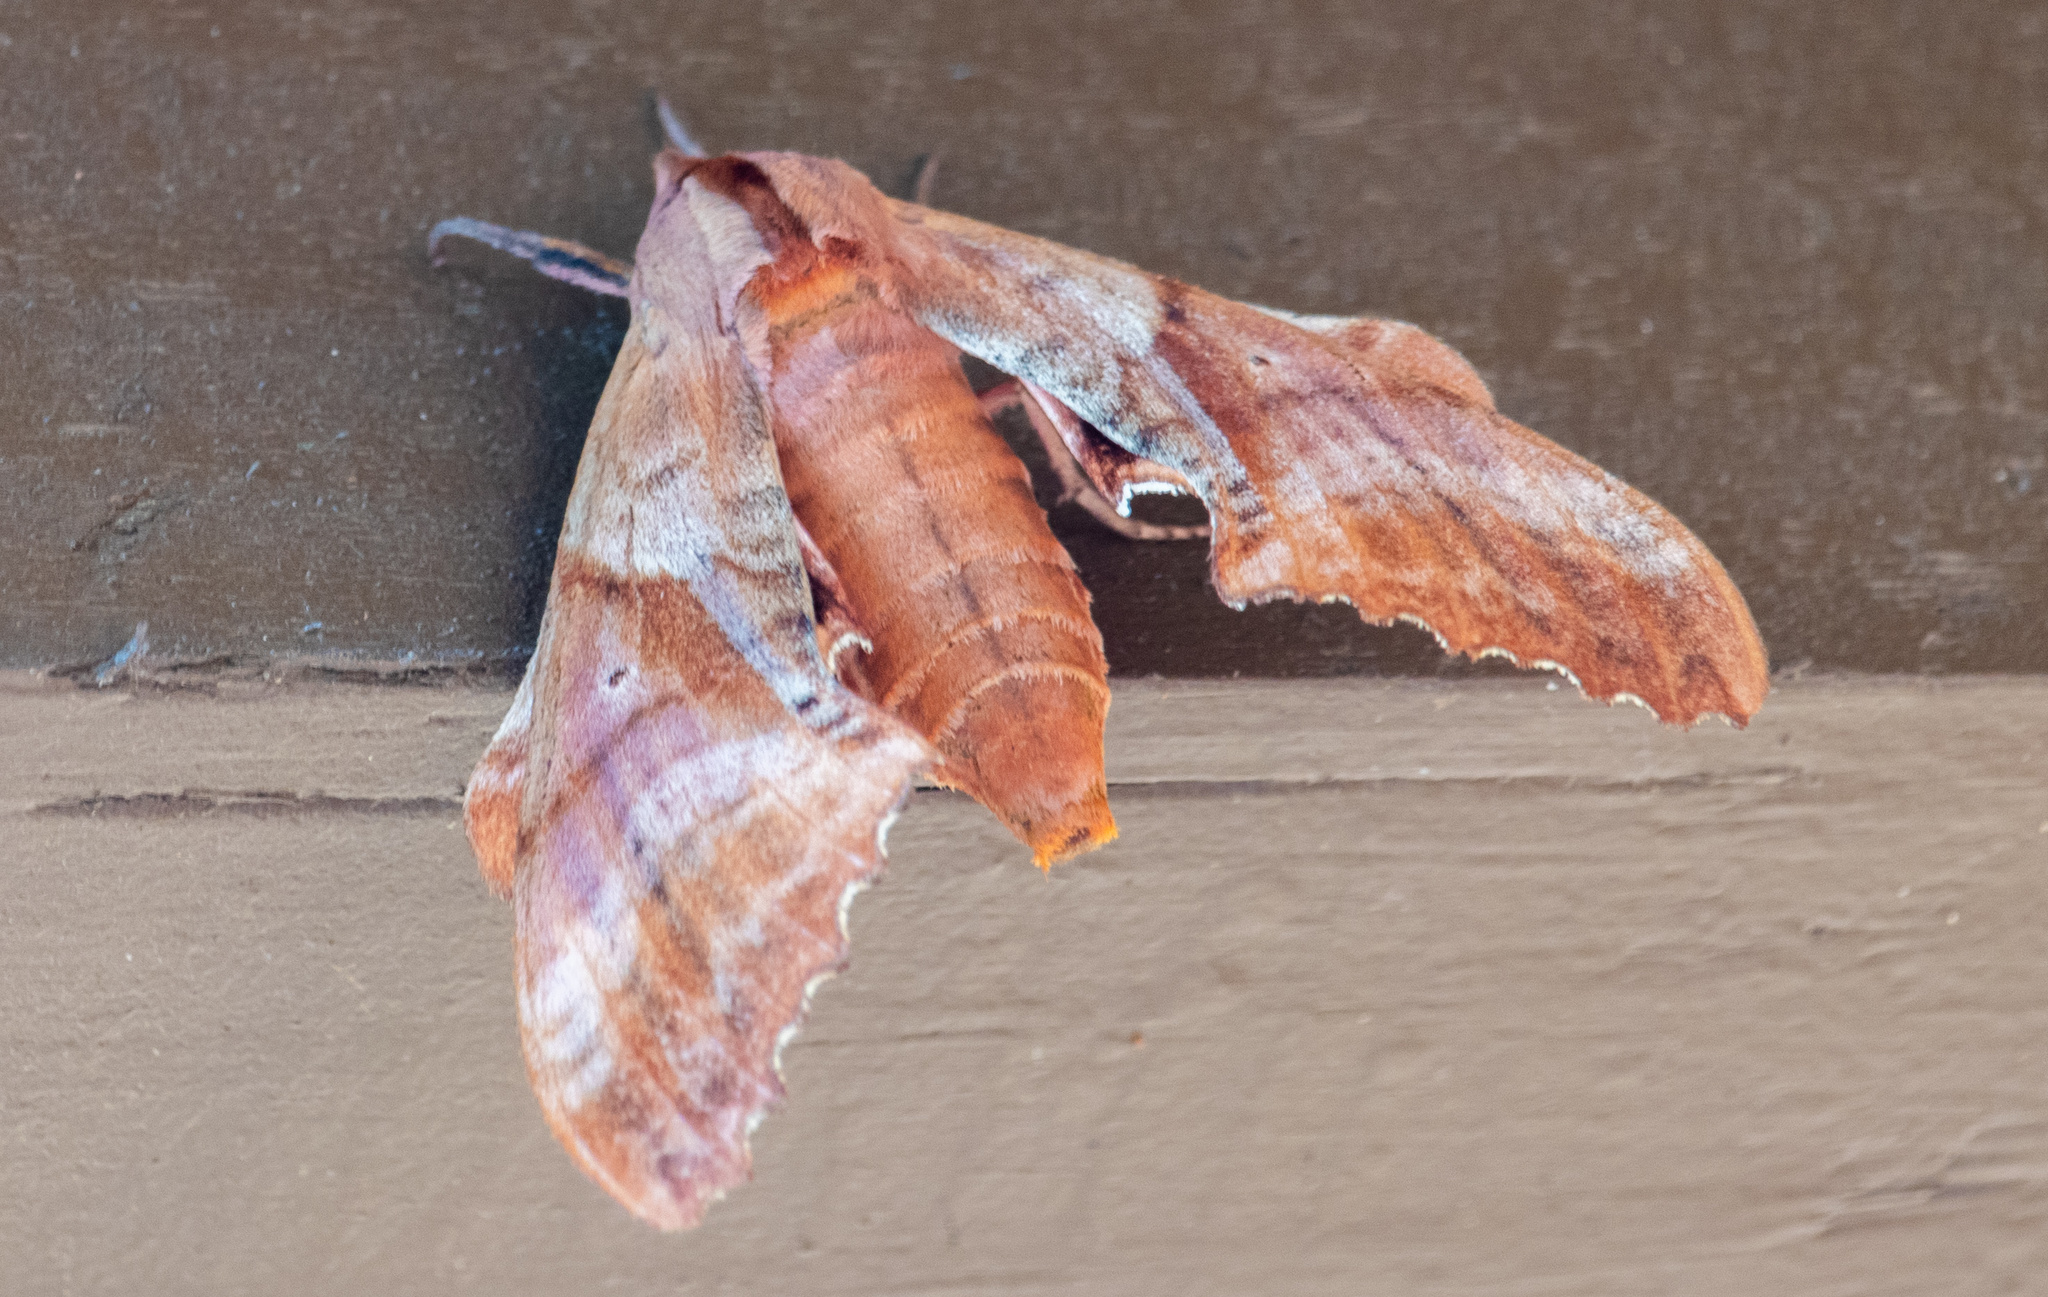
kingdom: Animalia
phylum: Arthropoda
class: Insecta
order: Lepidoptera
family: Sphingidae
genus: Paonias
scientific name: Paonias excaecata
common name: Blind-eyed sphinx
